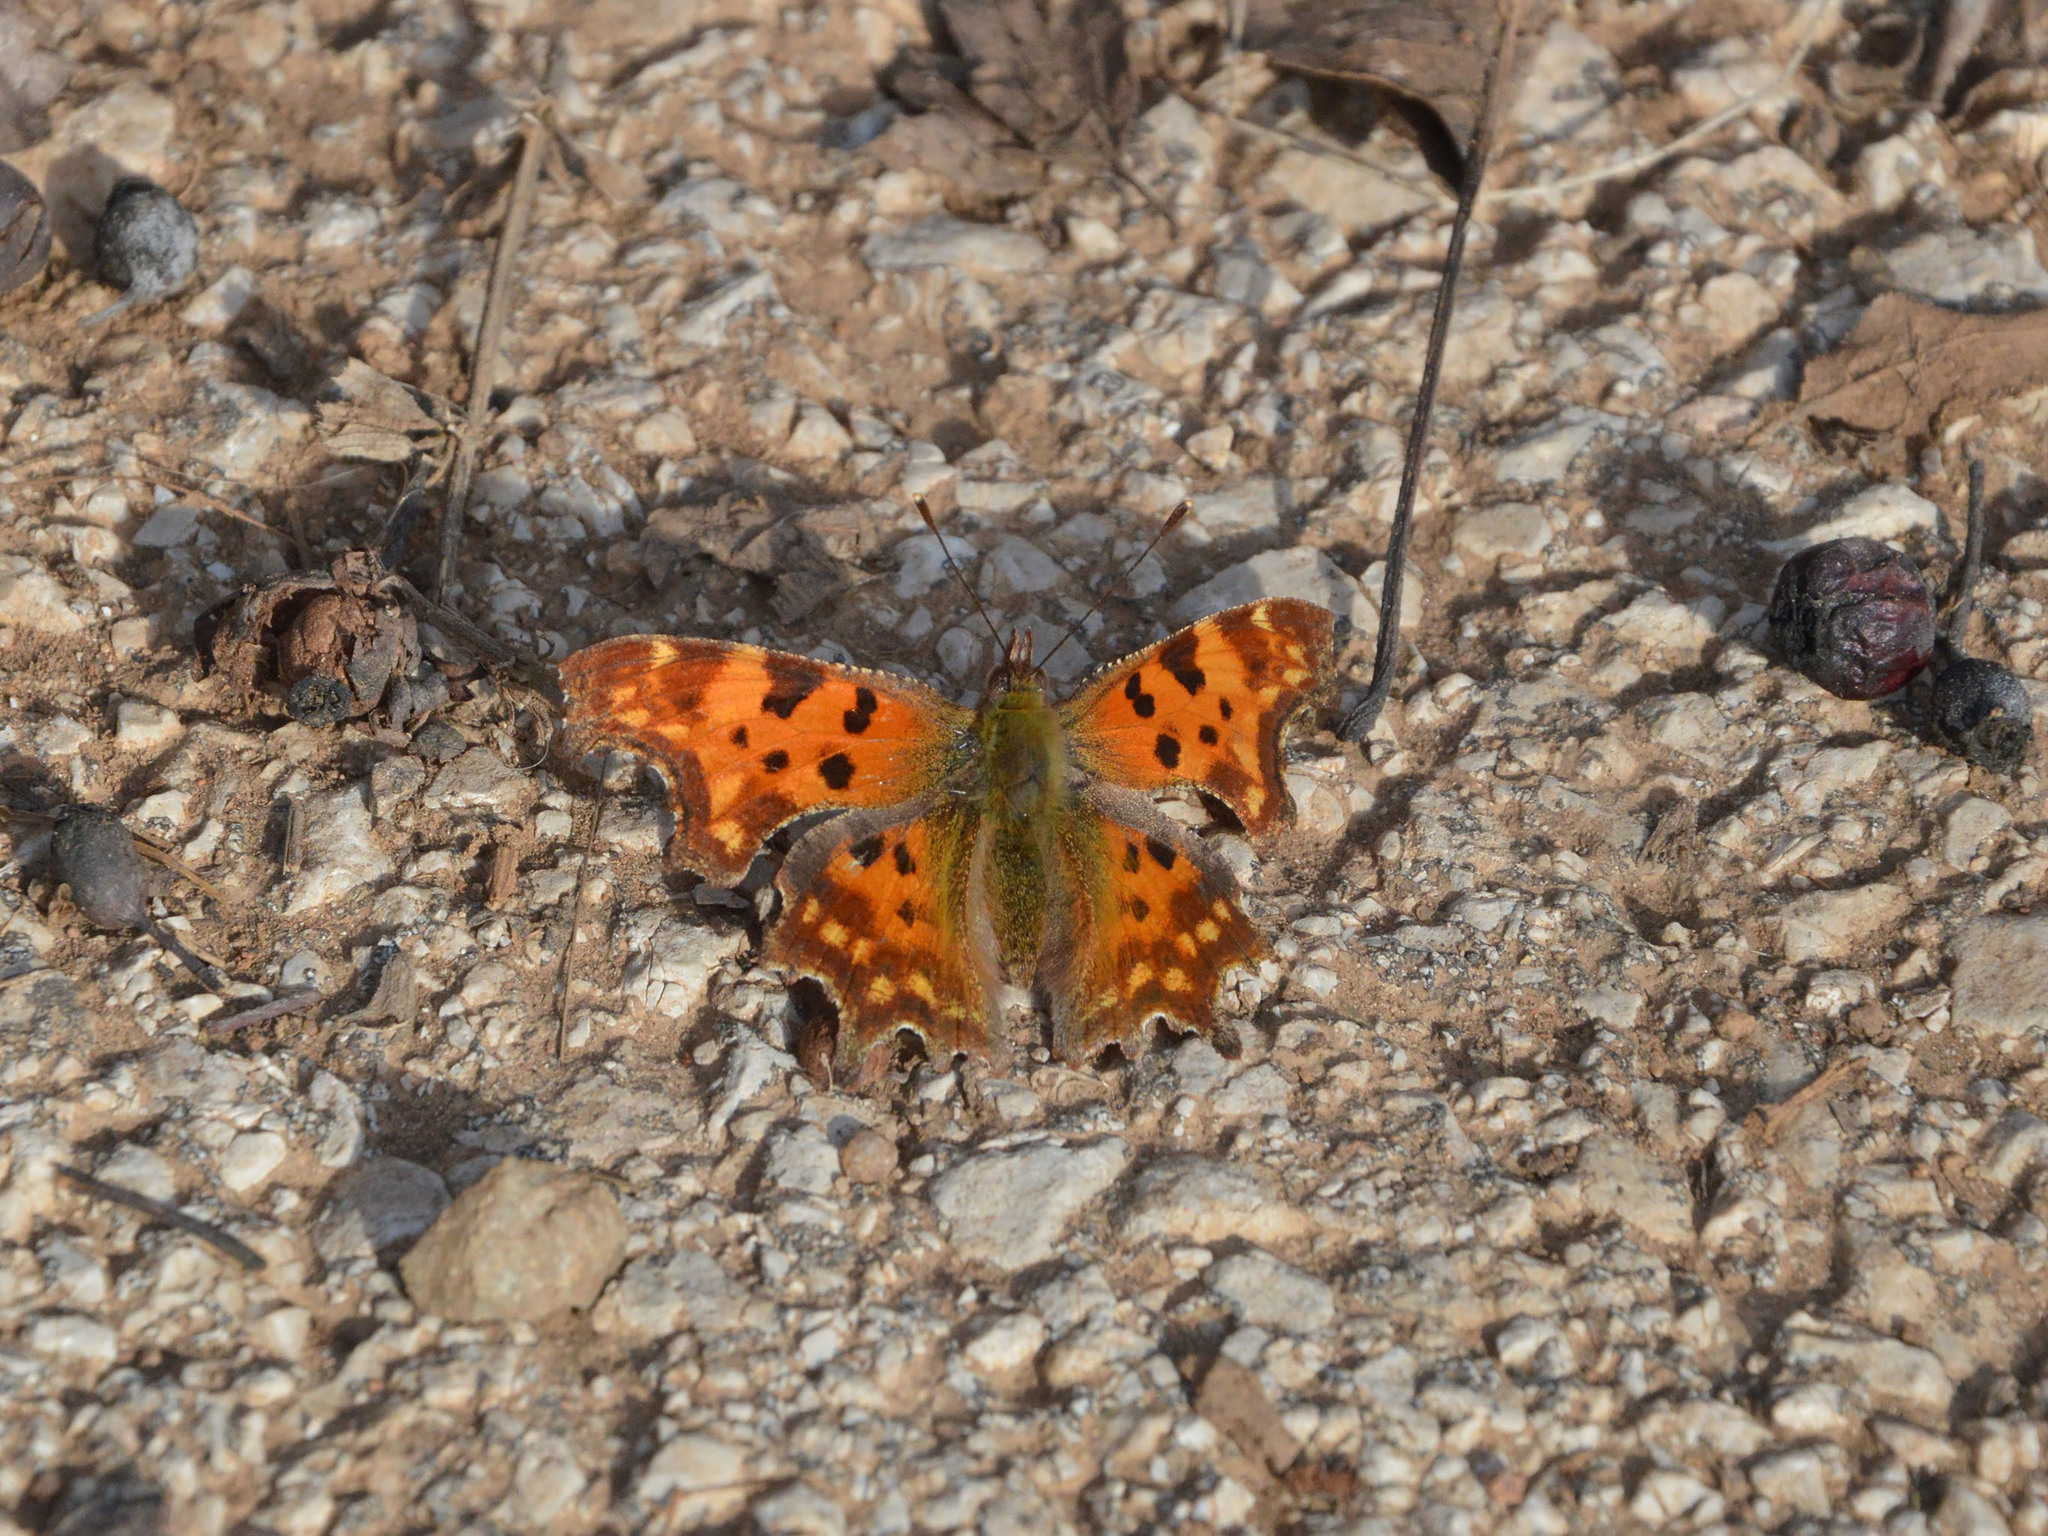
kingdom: Animalia
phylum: Arthropoda
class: Insecta
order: Lepidoptera
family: Nymphalidae
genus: Polygonia
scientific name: Polygonia c-album
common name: Comma
